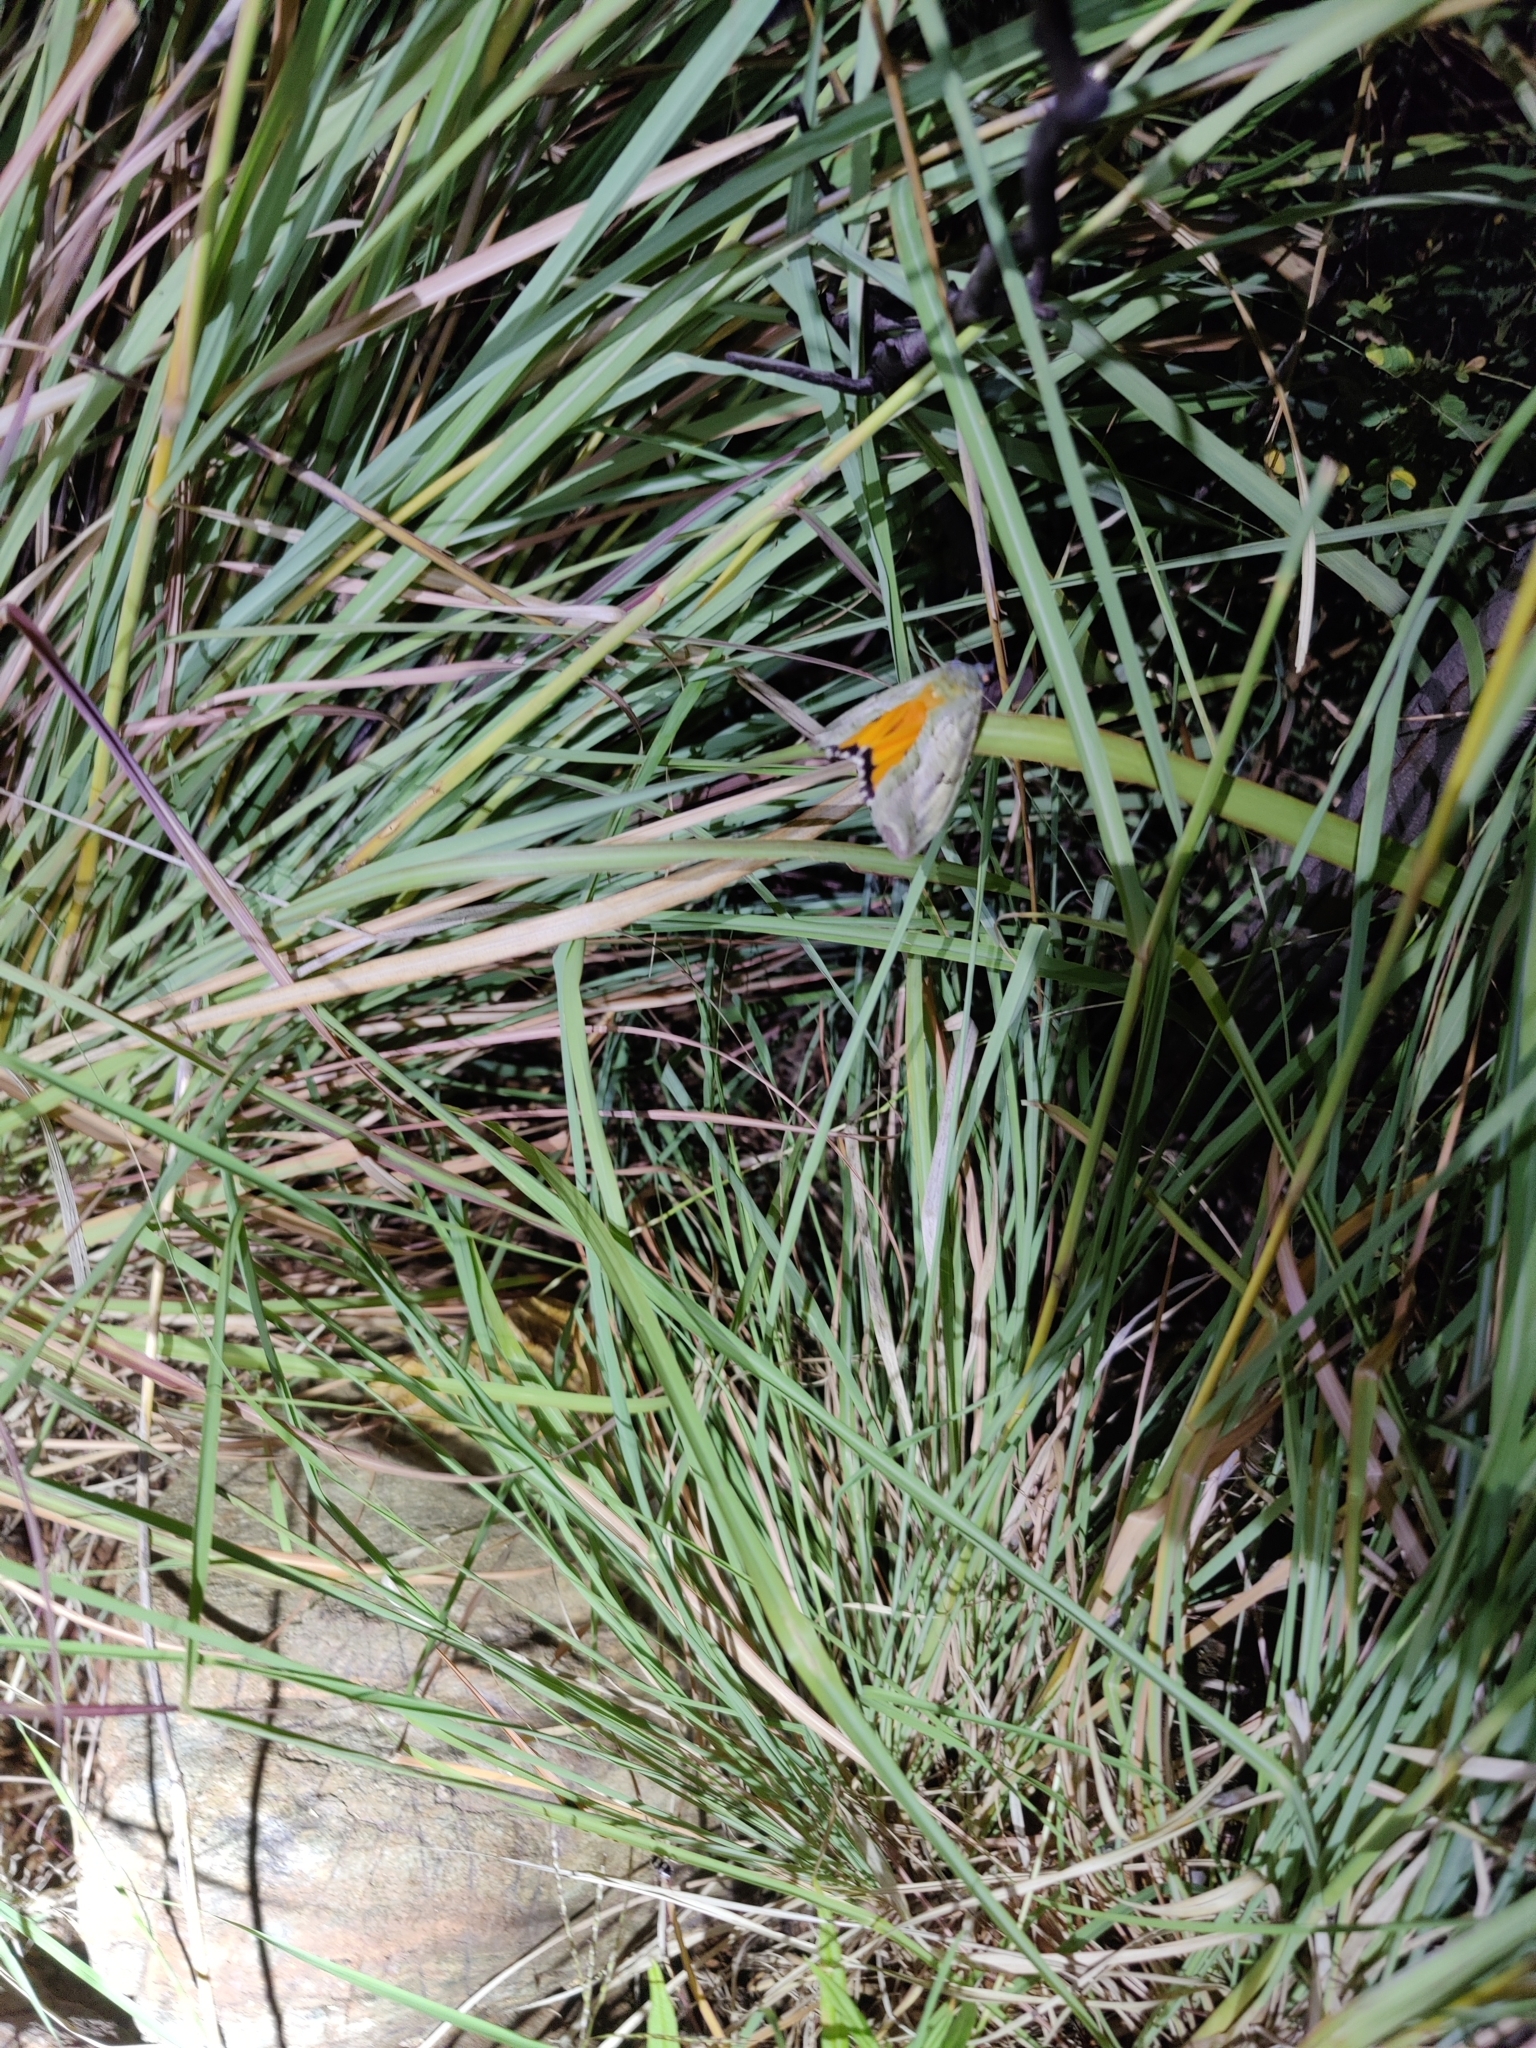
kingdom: Animalia
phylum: Arthropoda
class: Insecta
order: Lepidoptera
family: Erebidae
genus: Eudocima
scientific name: Eudocima materna
